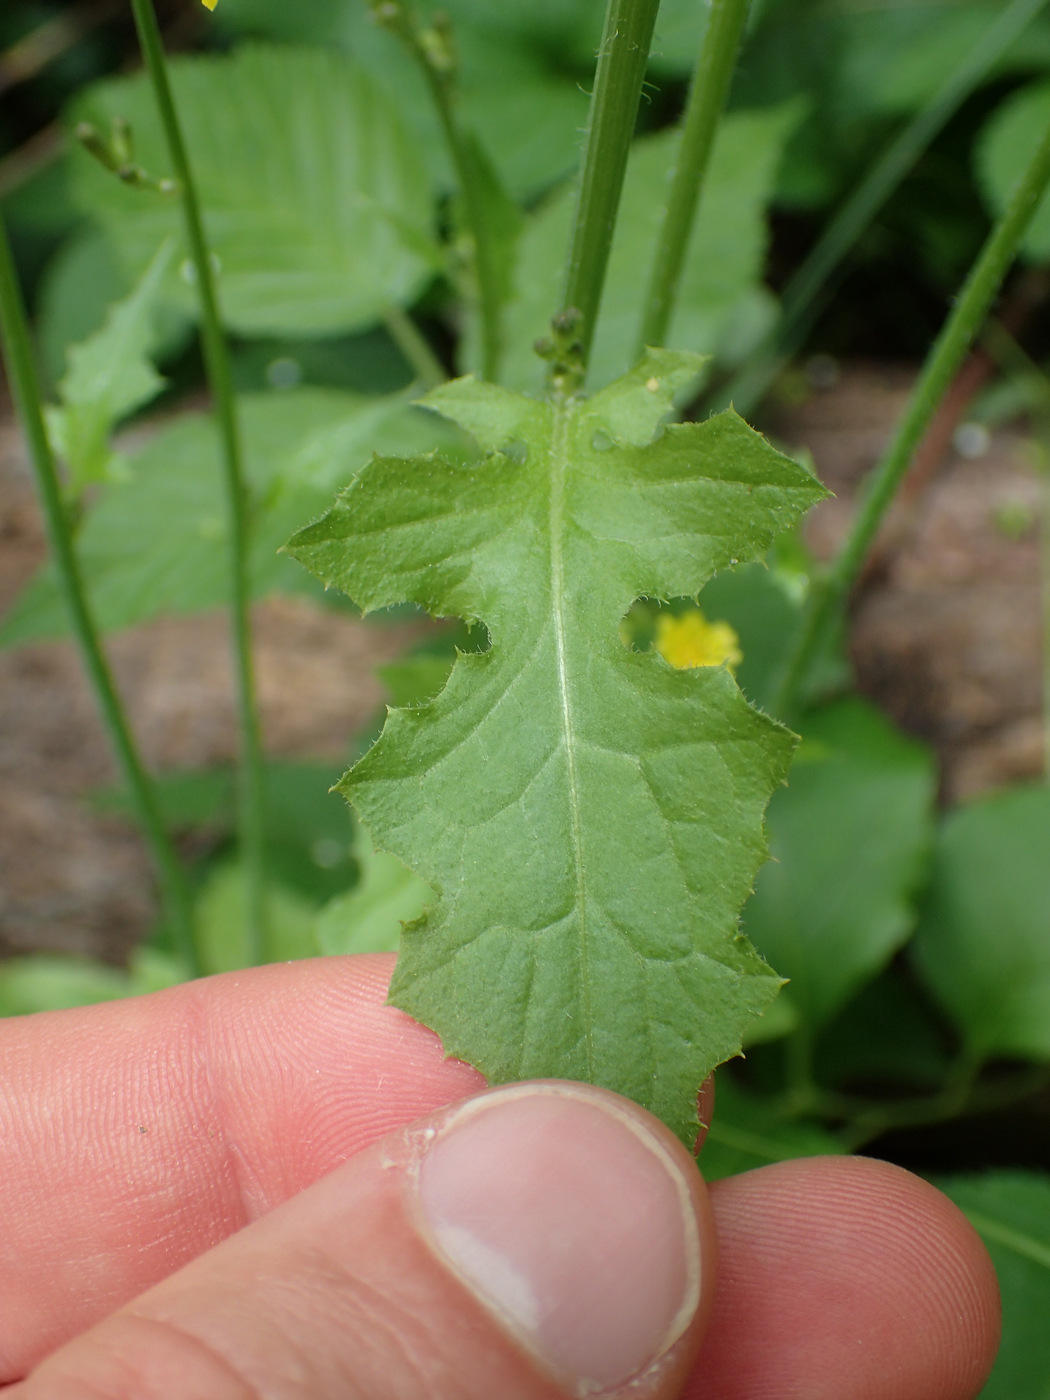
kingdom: Plantae
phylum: Tracheophyta
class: Magnoliopsida
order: Asterales
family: Asteraceae
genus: Youngia
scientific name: Youngia japonica
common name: Oriental false hawksbeard
